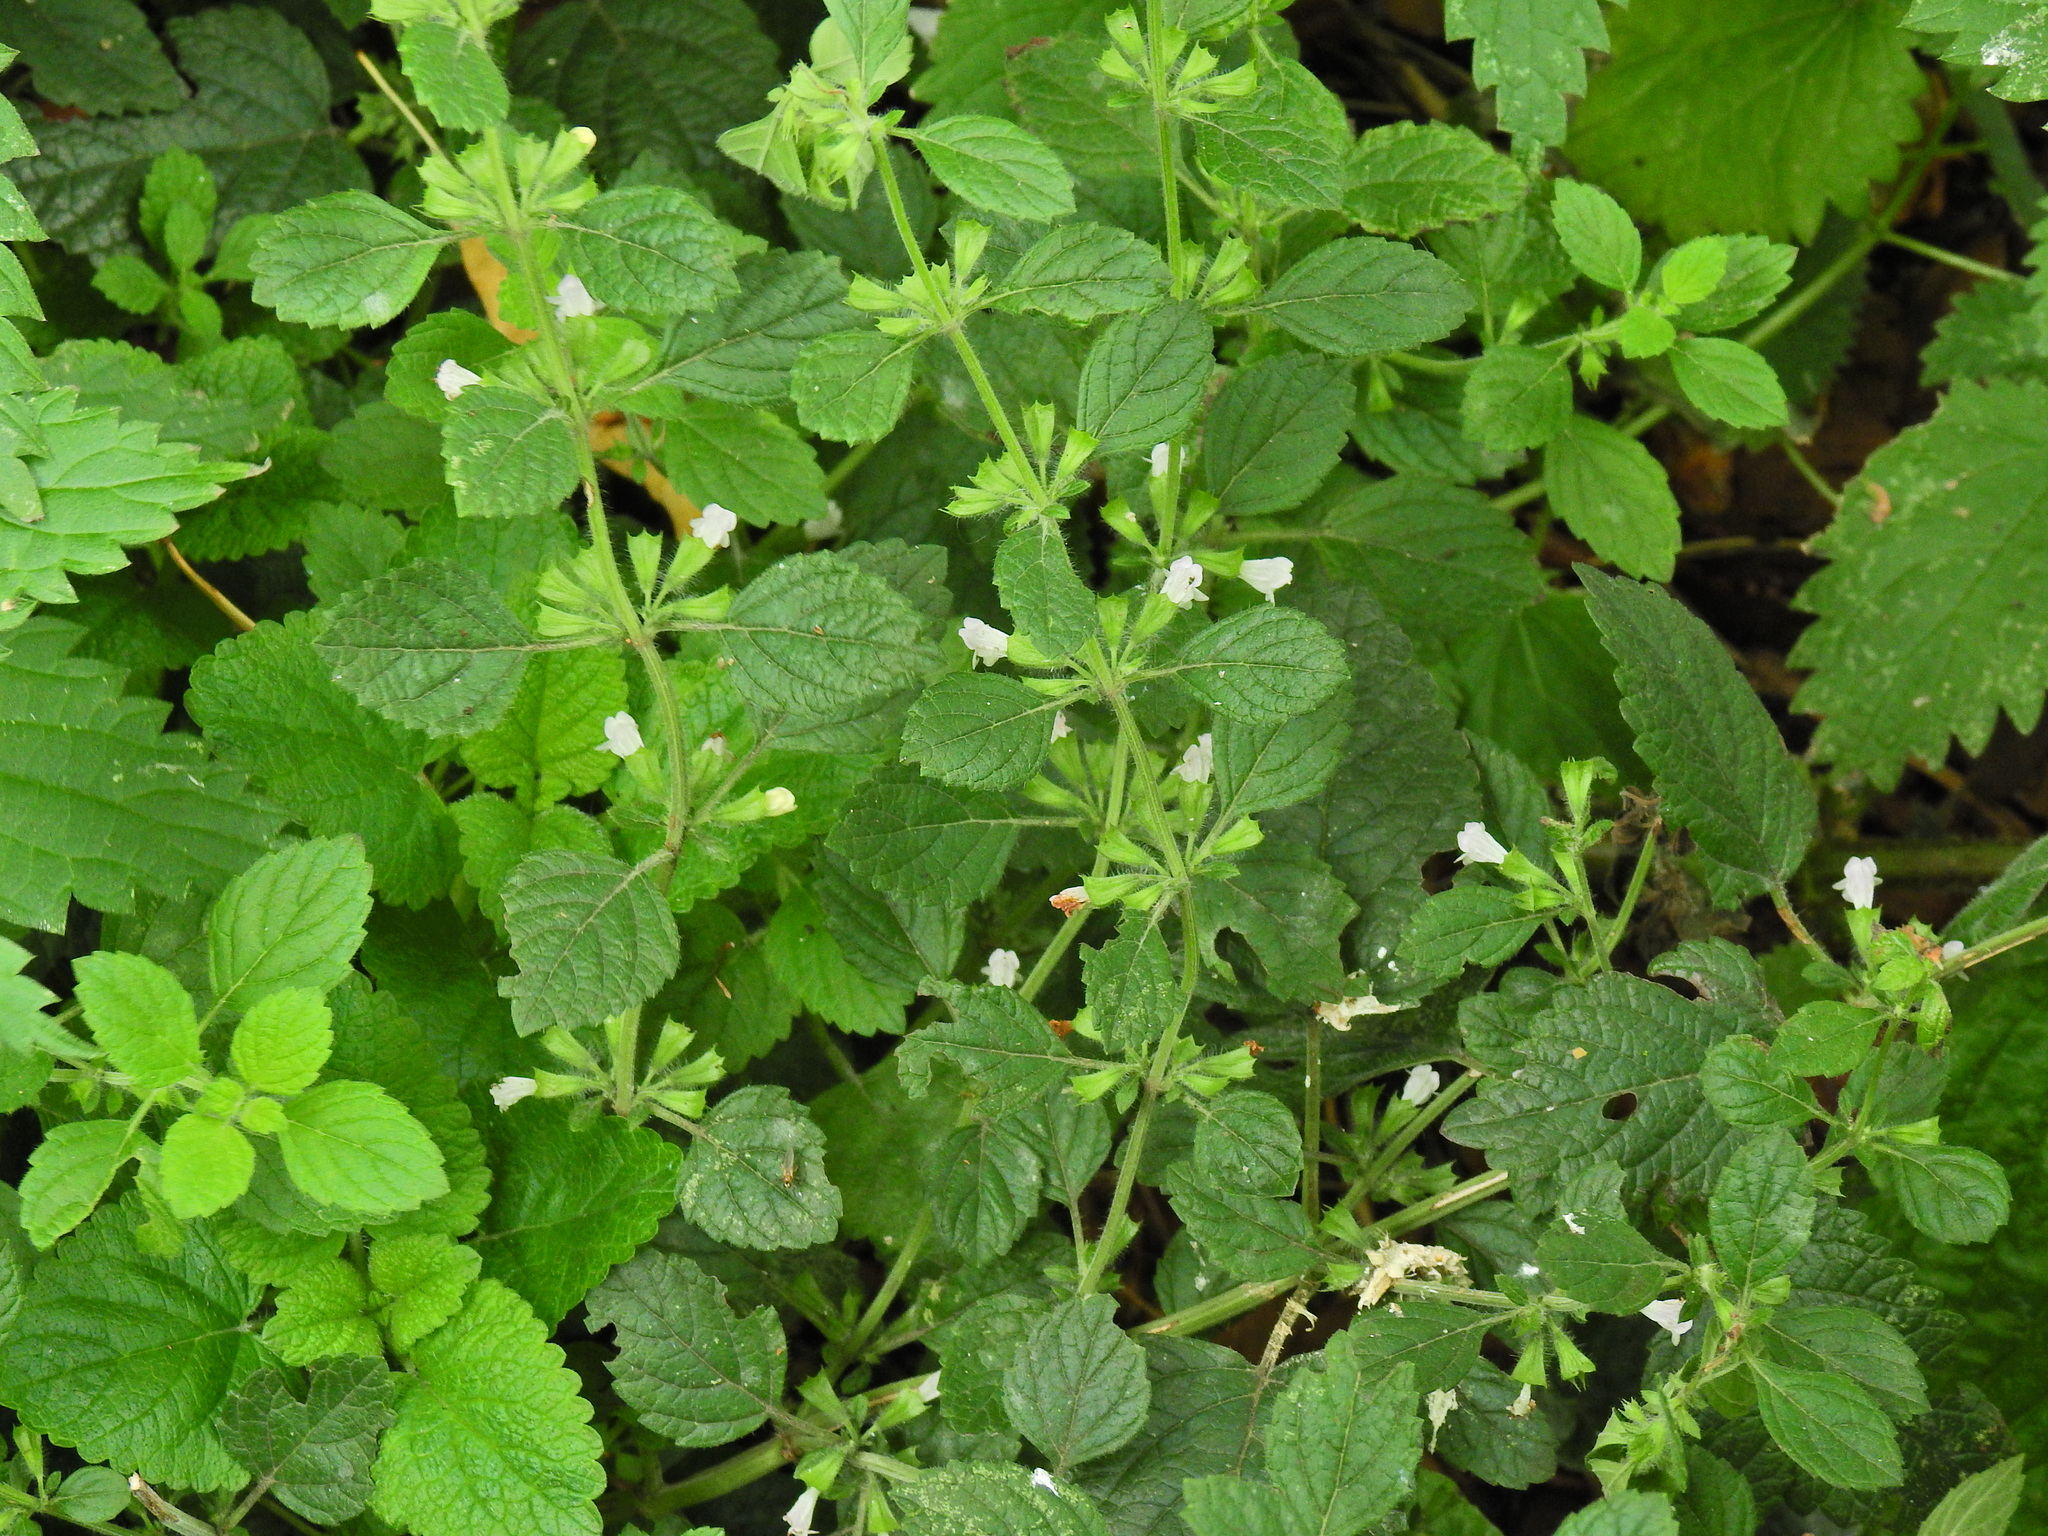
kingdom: Plantae
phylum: Tracheophyta
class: Magnoliopsida
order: Lamiales
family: Lamiaceae
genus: Melissa
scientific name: Melissa officinalis
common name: Balm
